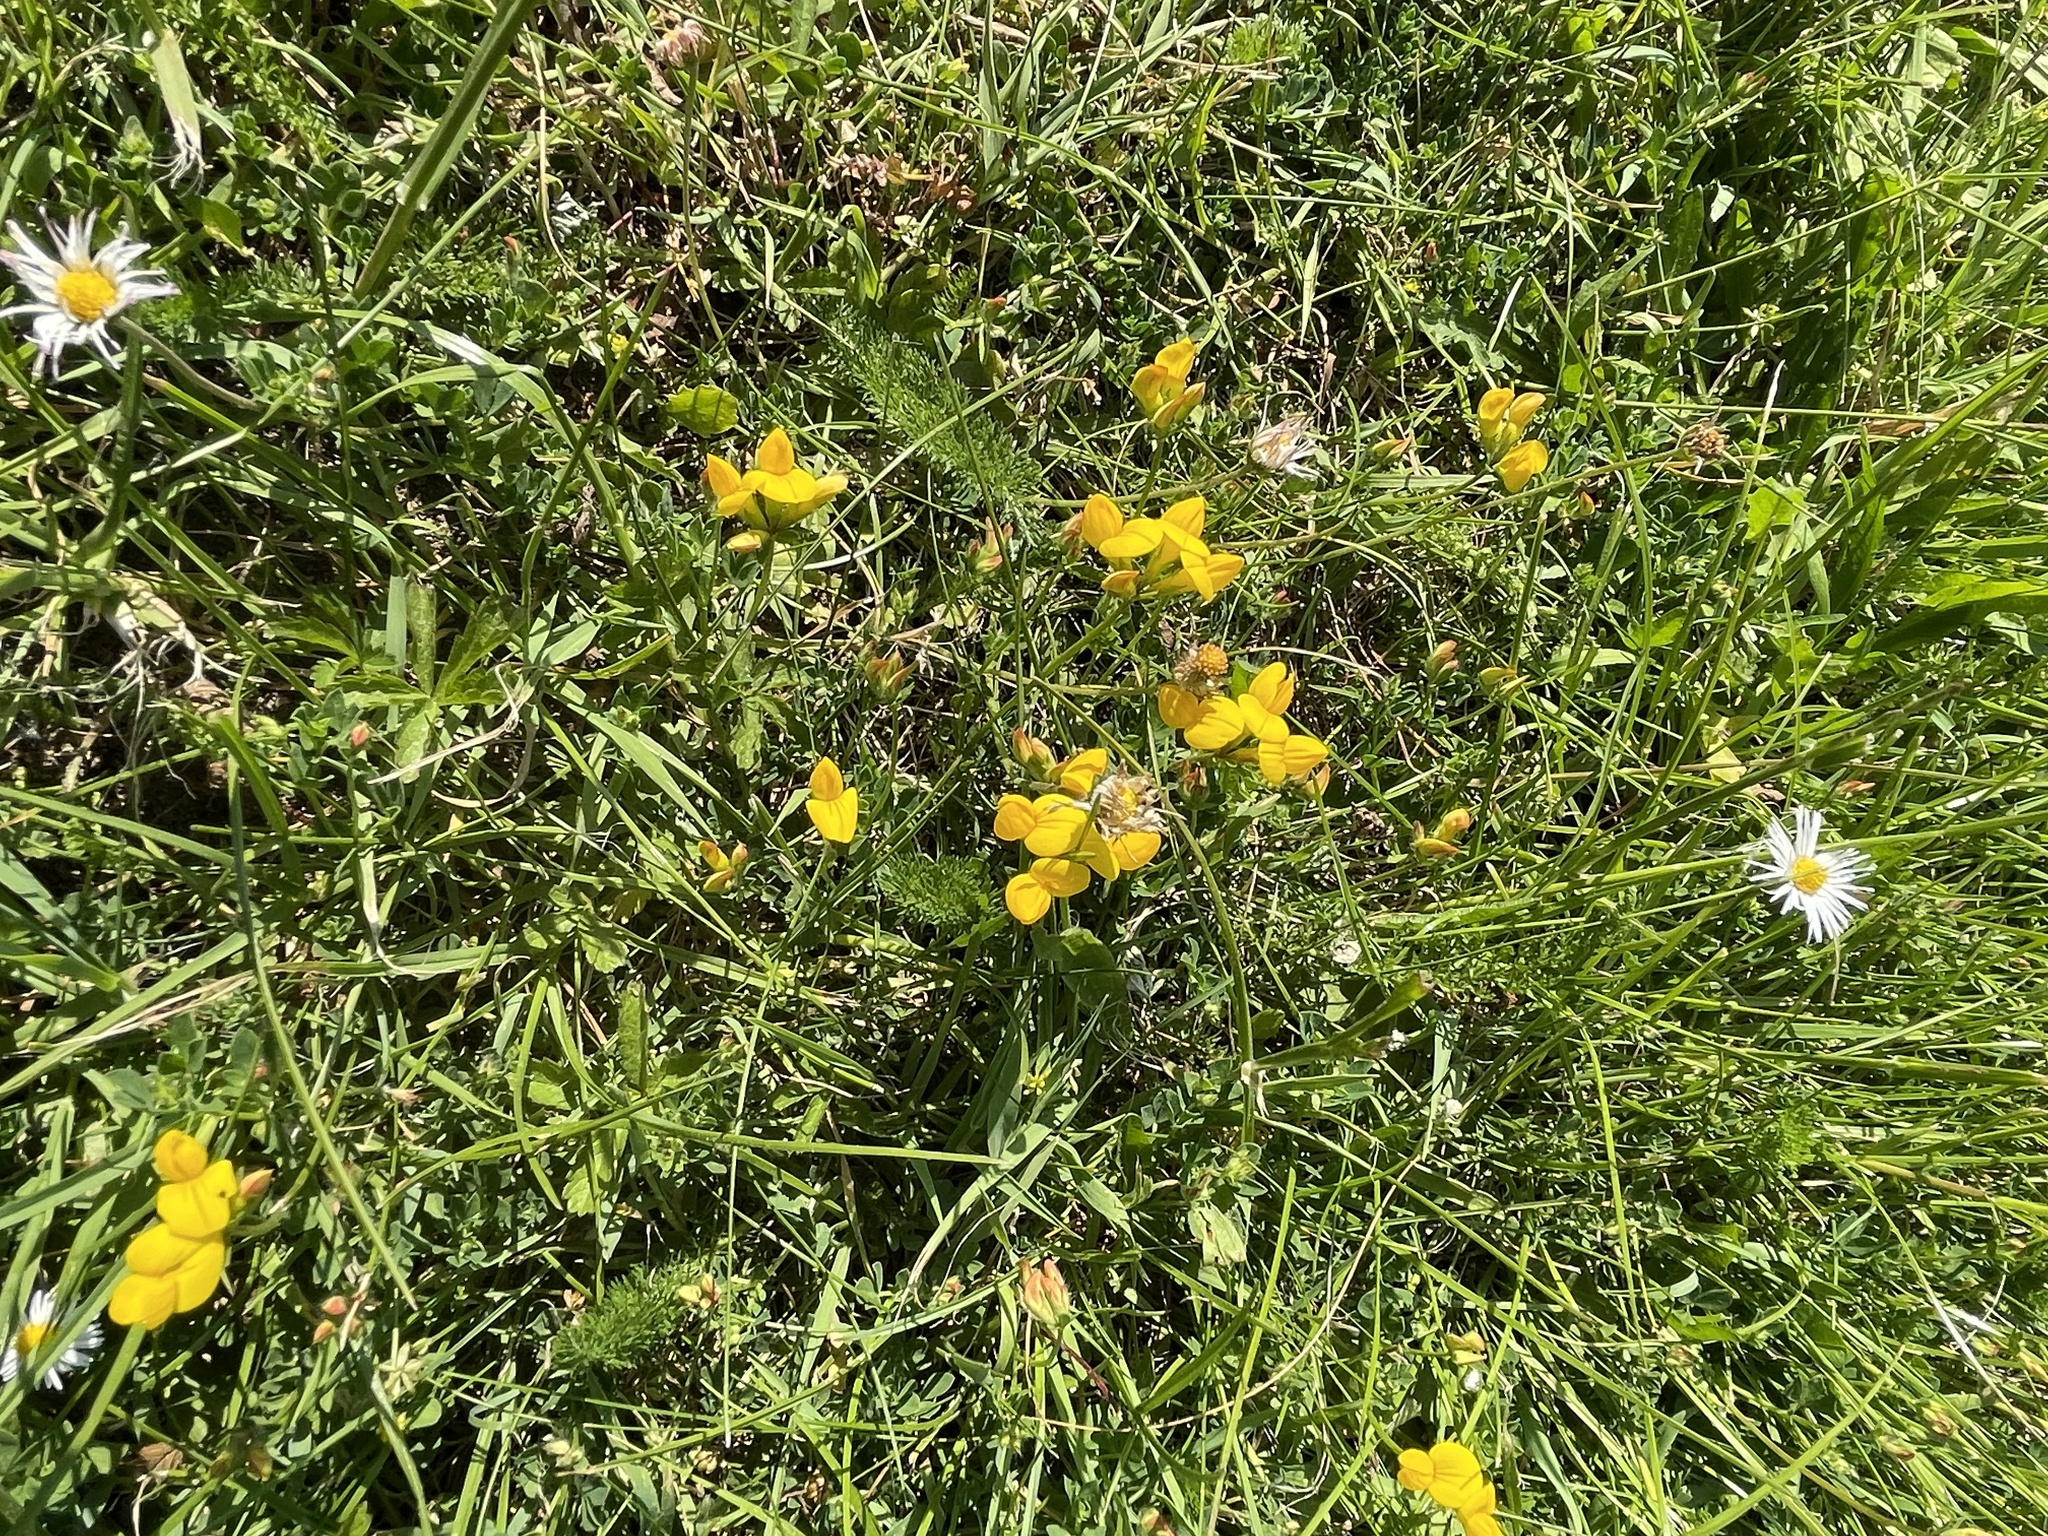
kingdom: Plantae
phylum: Tracheophyta
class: Magnoliopsida
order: Fabales
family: Fabaceae
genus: Lotus
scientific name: Lotus corniculatus
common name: Common bird's-foot-trefoil
